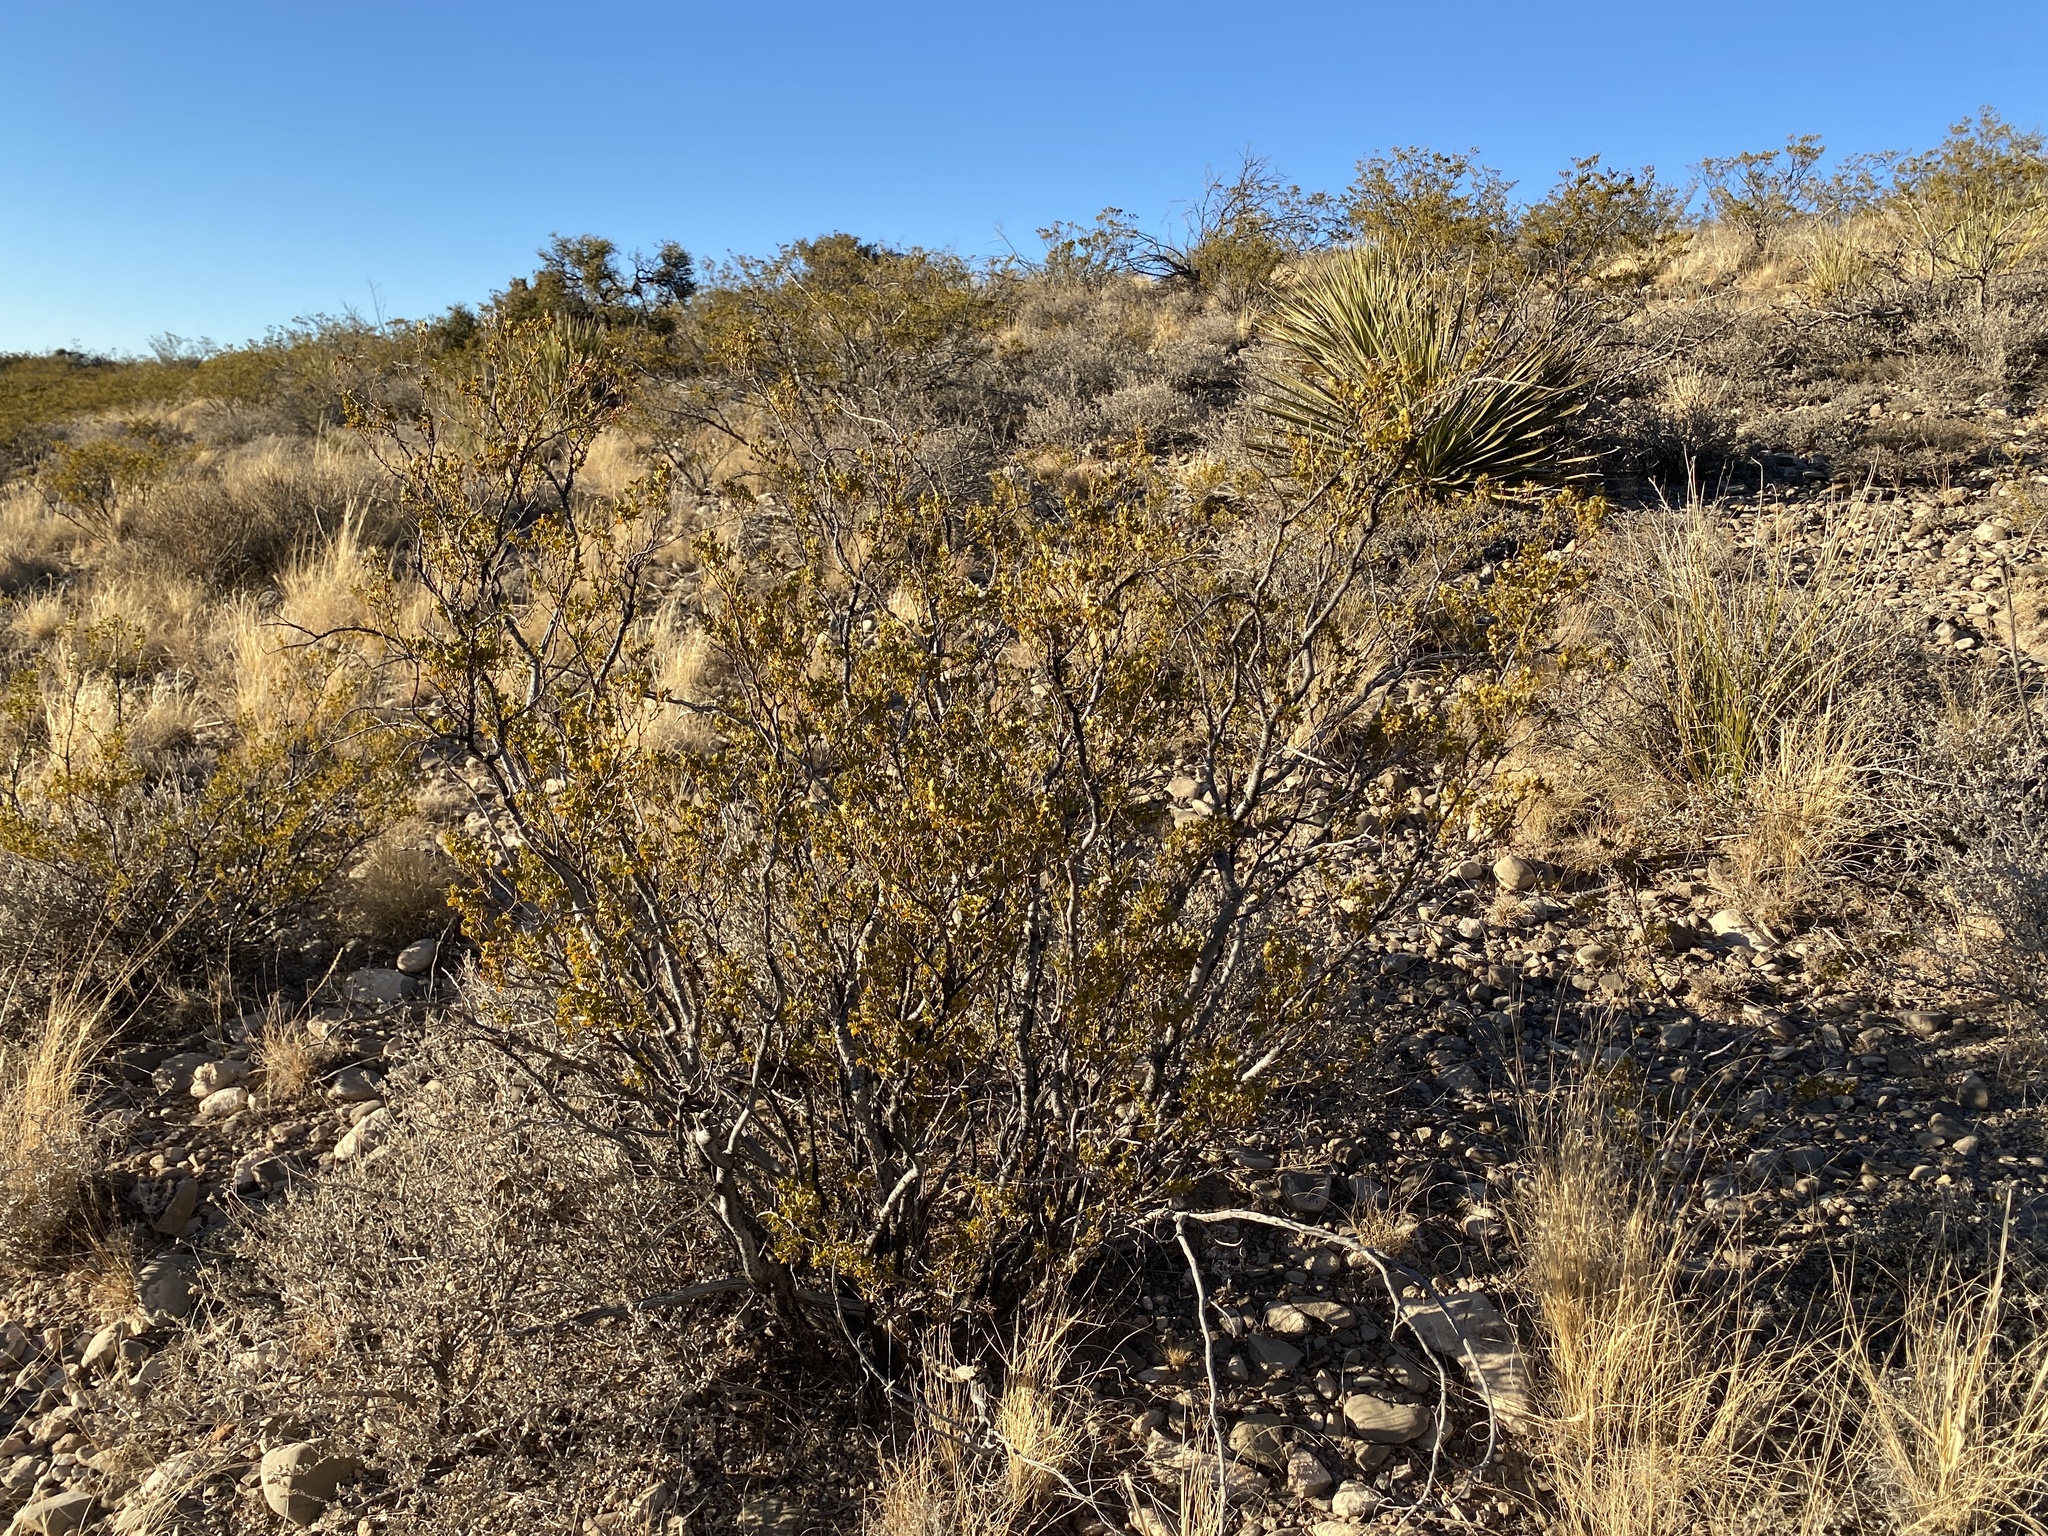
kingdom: Plantae
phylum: Tracheophyta
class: Magnoliopsida
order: Zygophyllales
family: Zygophyllaceae
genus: Larrea
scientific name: Larrea tridentata
